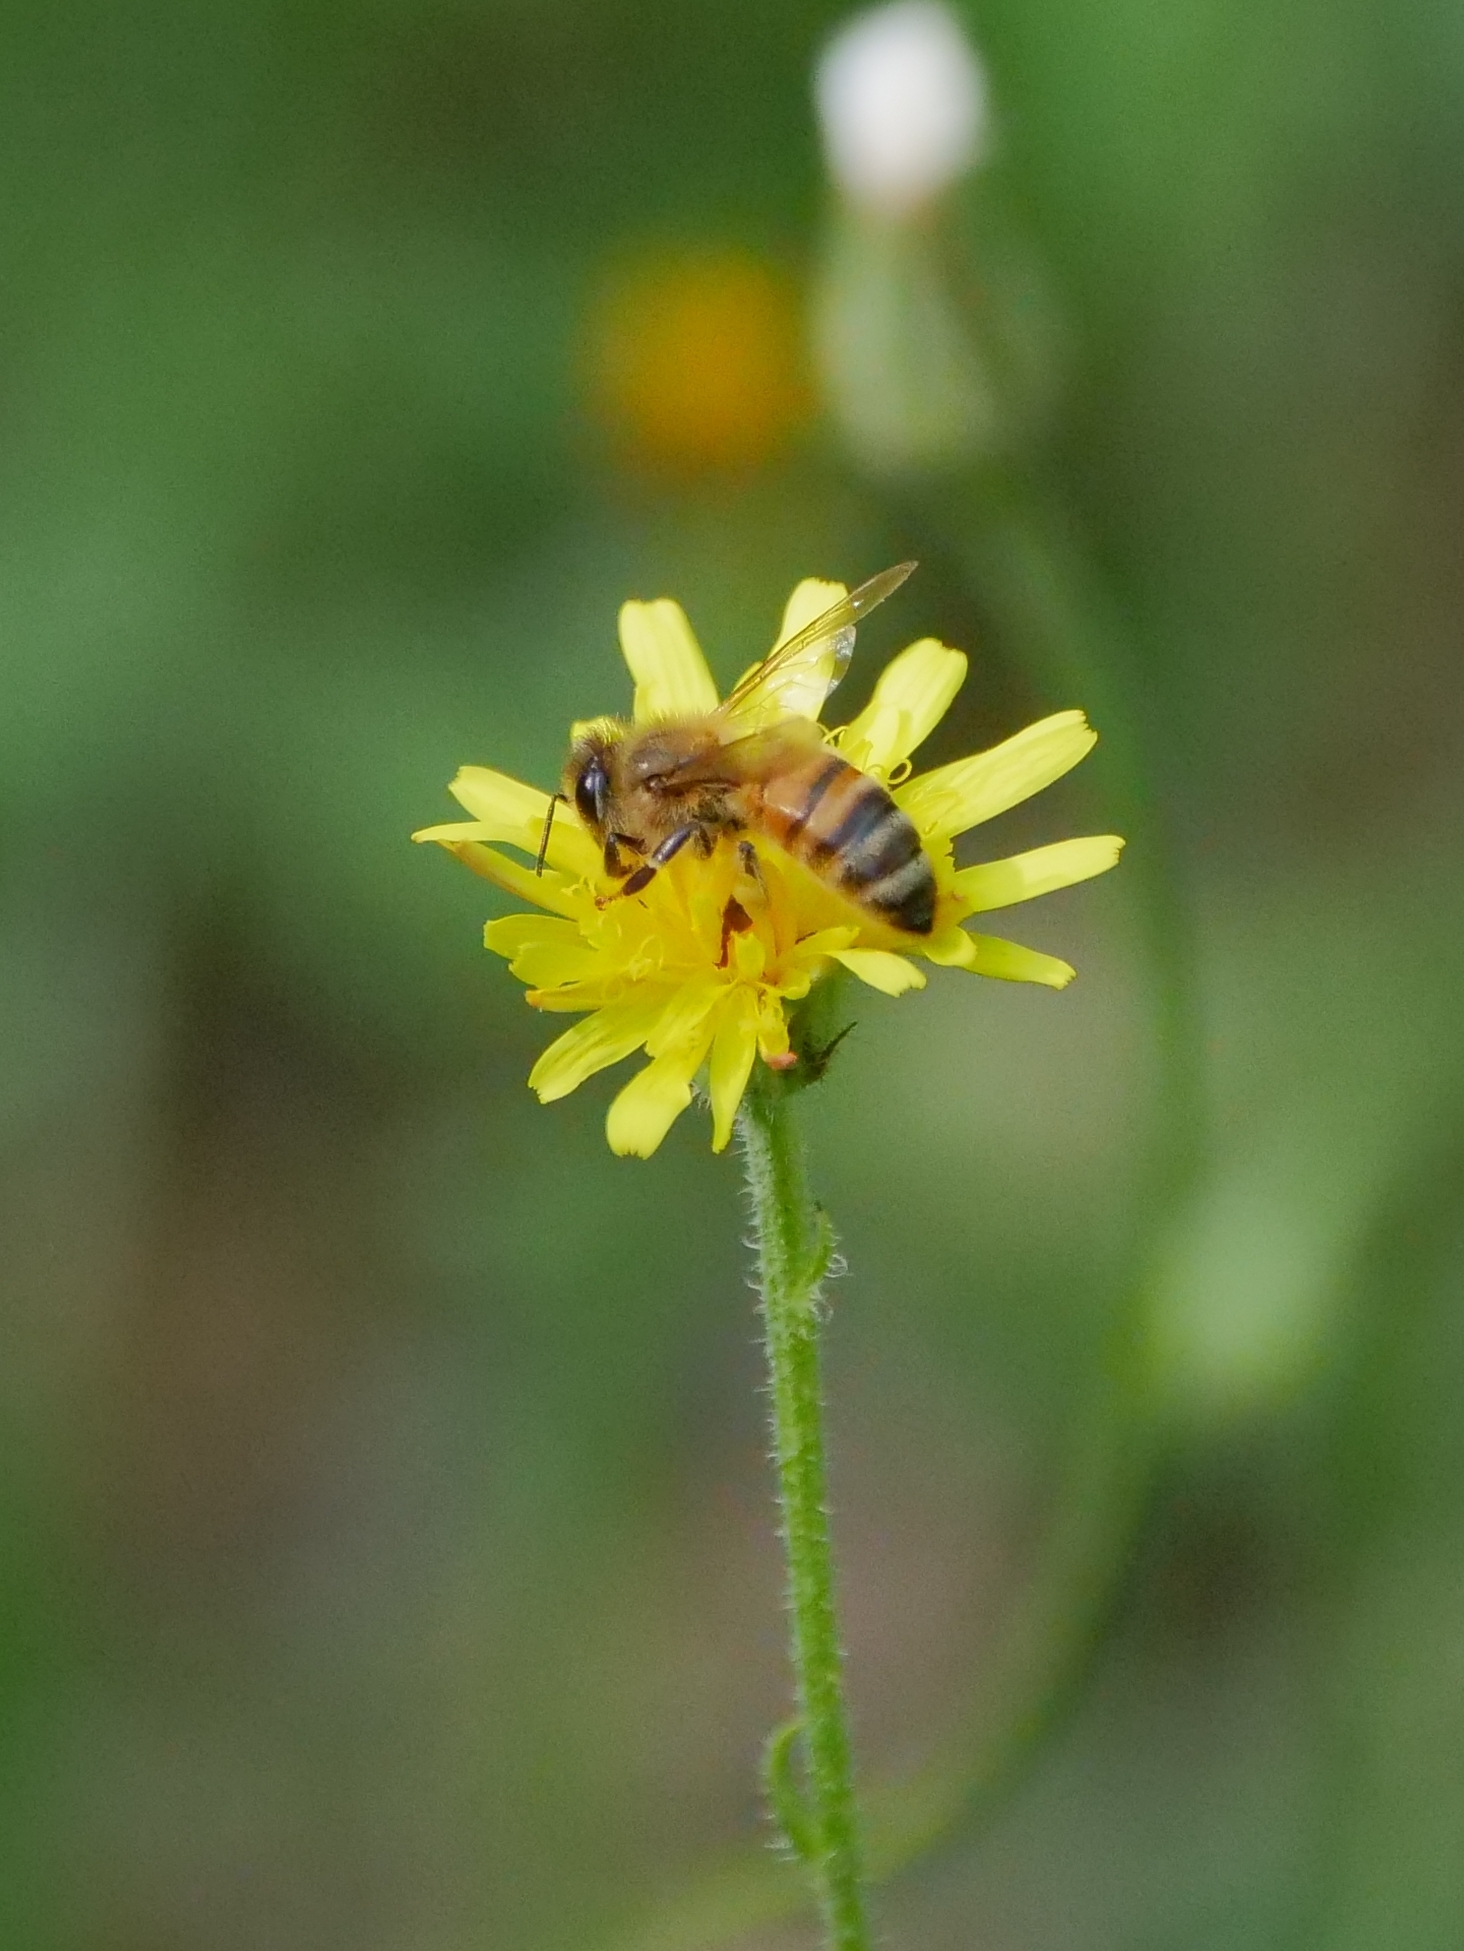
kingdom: Animalia
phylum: Arthropoda
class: Insecta
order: Hymenoptera
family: Apidae
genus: Apis
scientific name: Apis mellifera
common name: Honey bee
